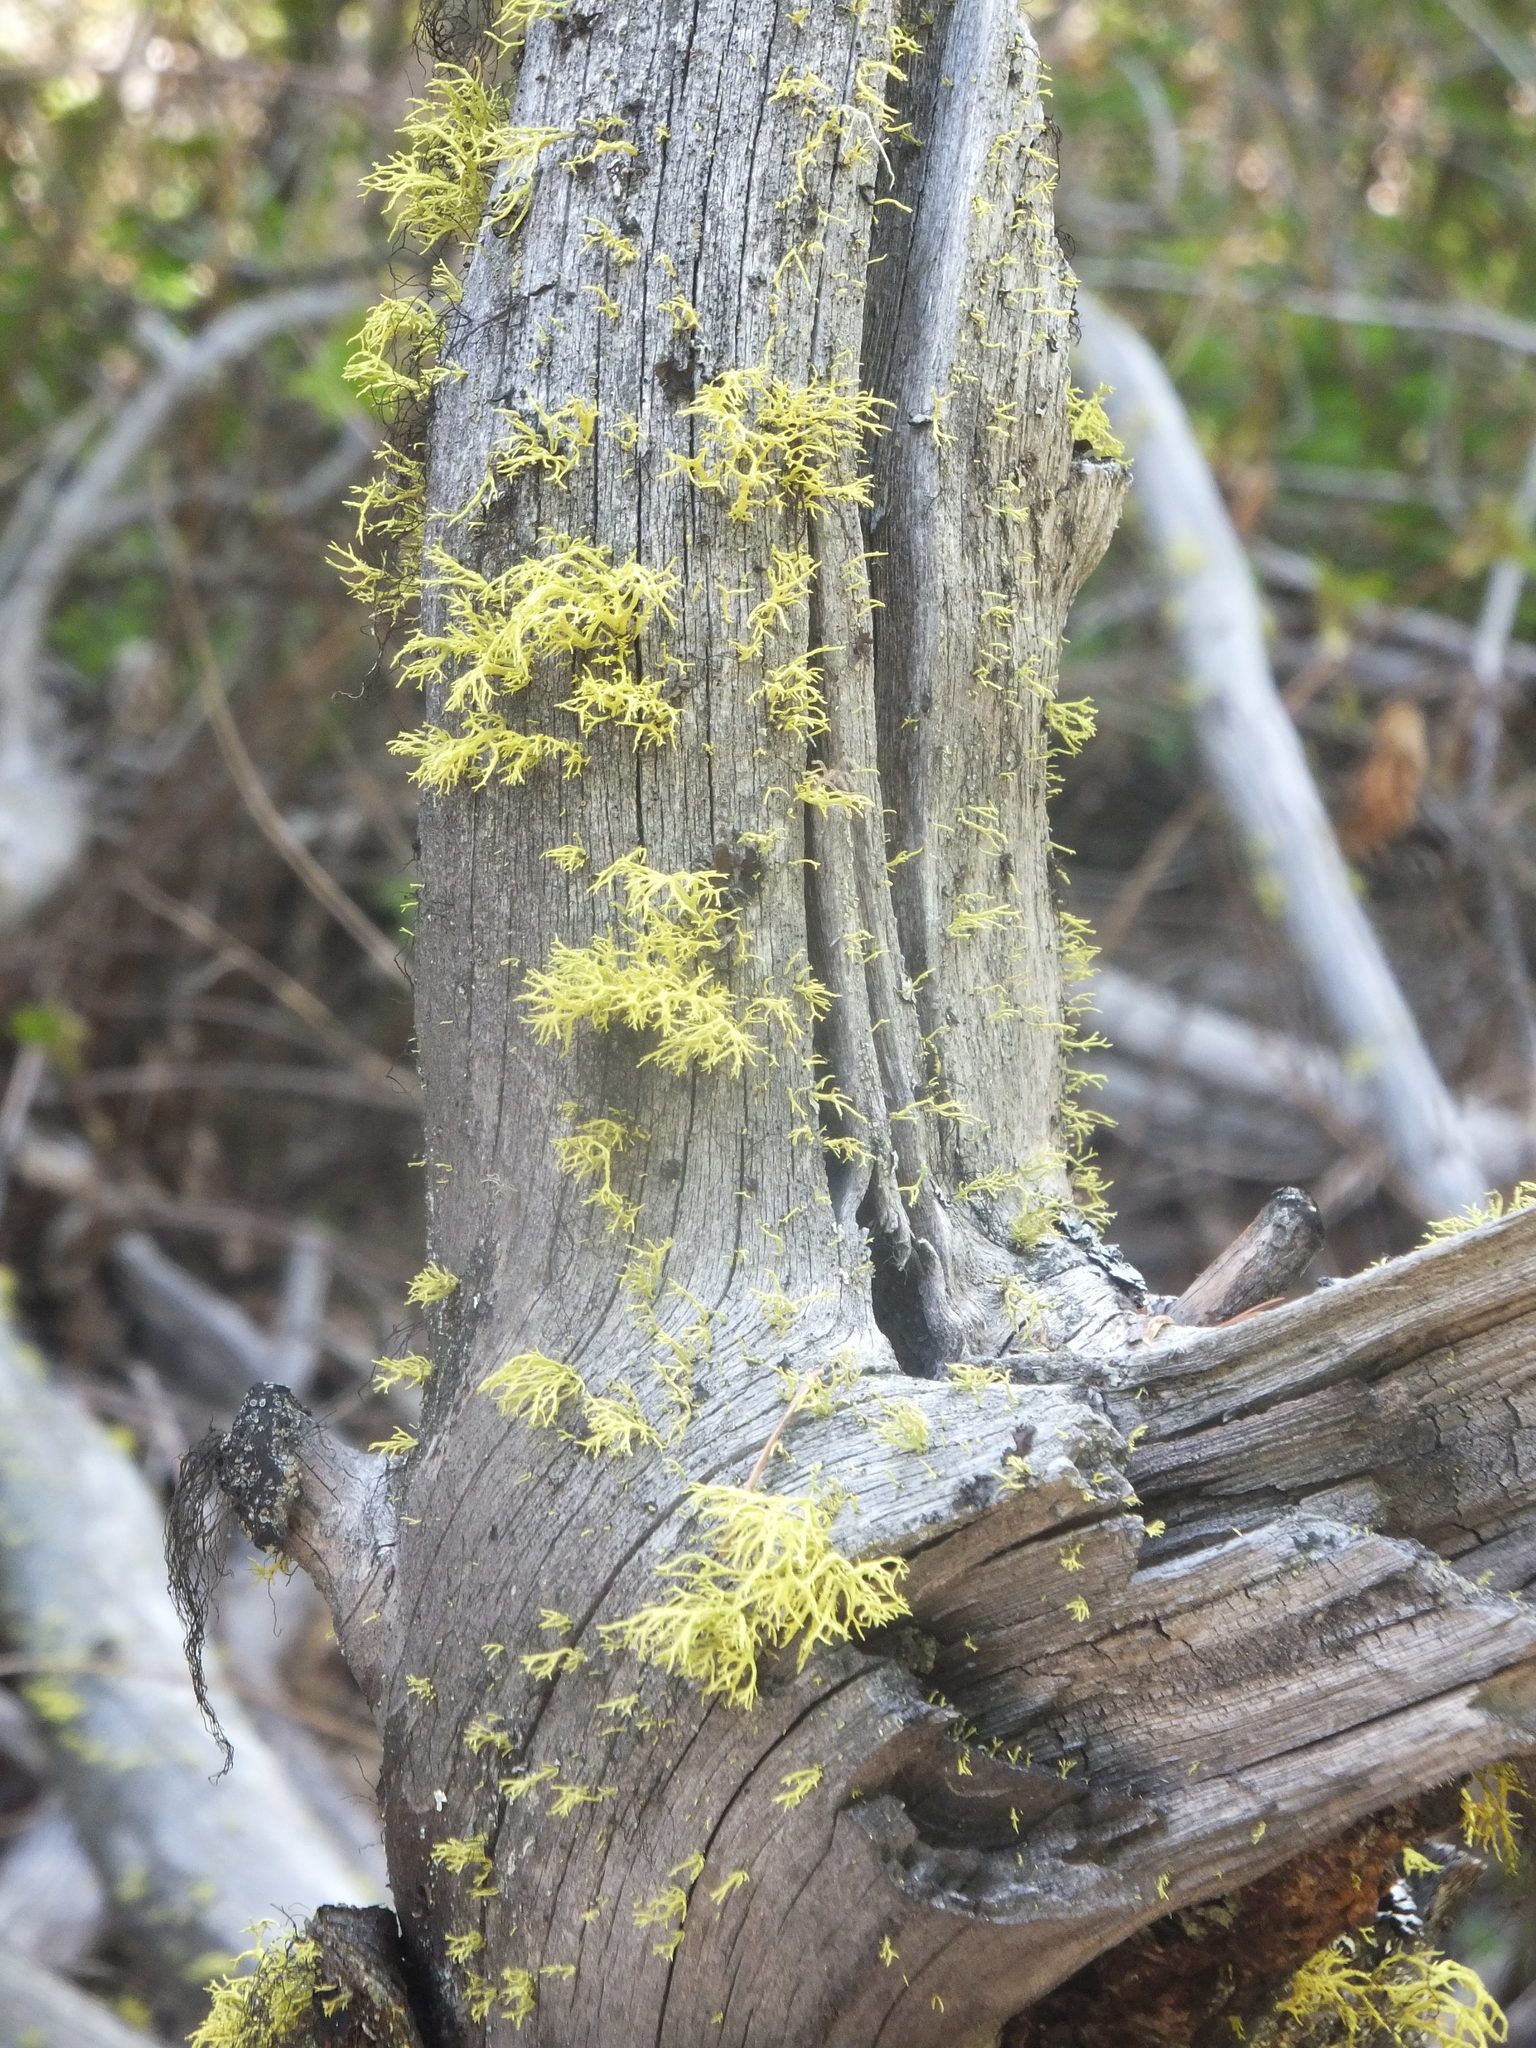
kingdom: Fungi
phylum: Ascomycota
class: Lecanoromycetes
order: Lecanorales
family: Parmeliaceae
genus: Letharia
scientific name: Letharia vulpina
